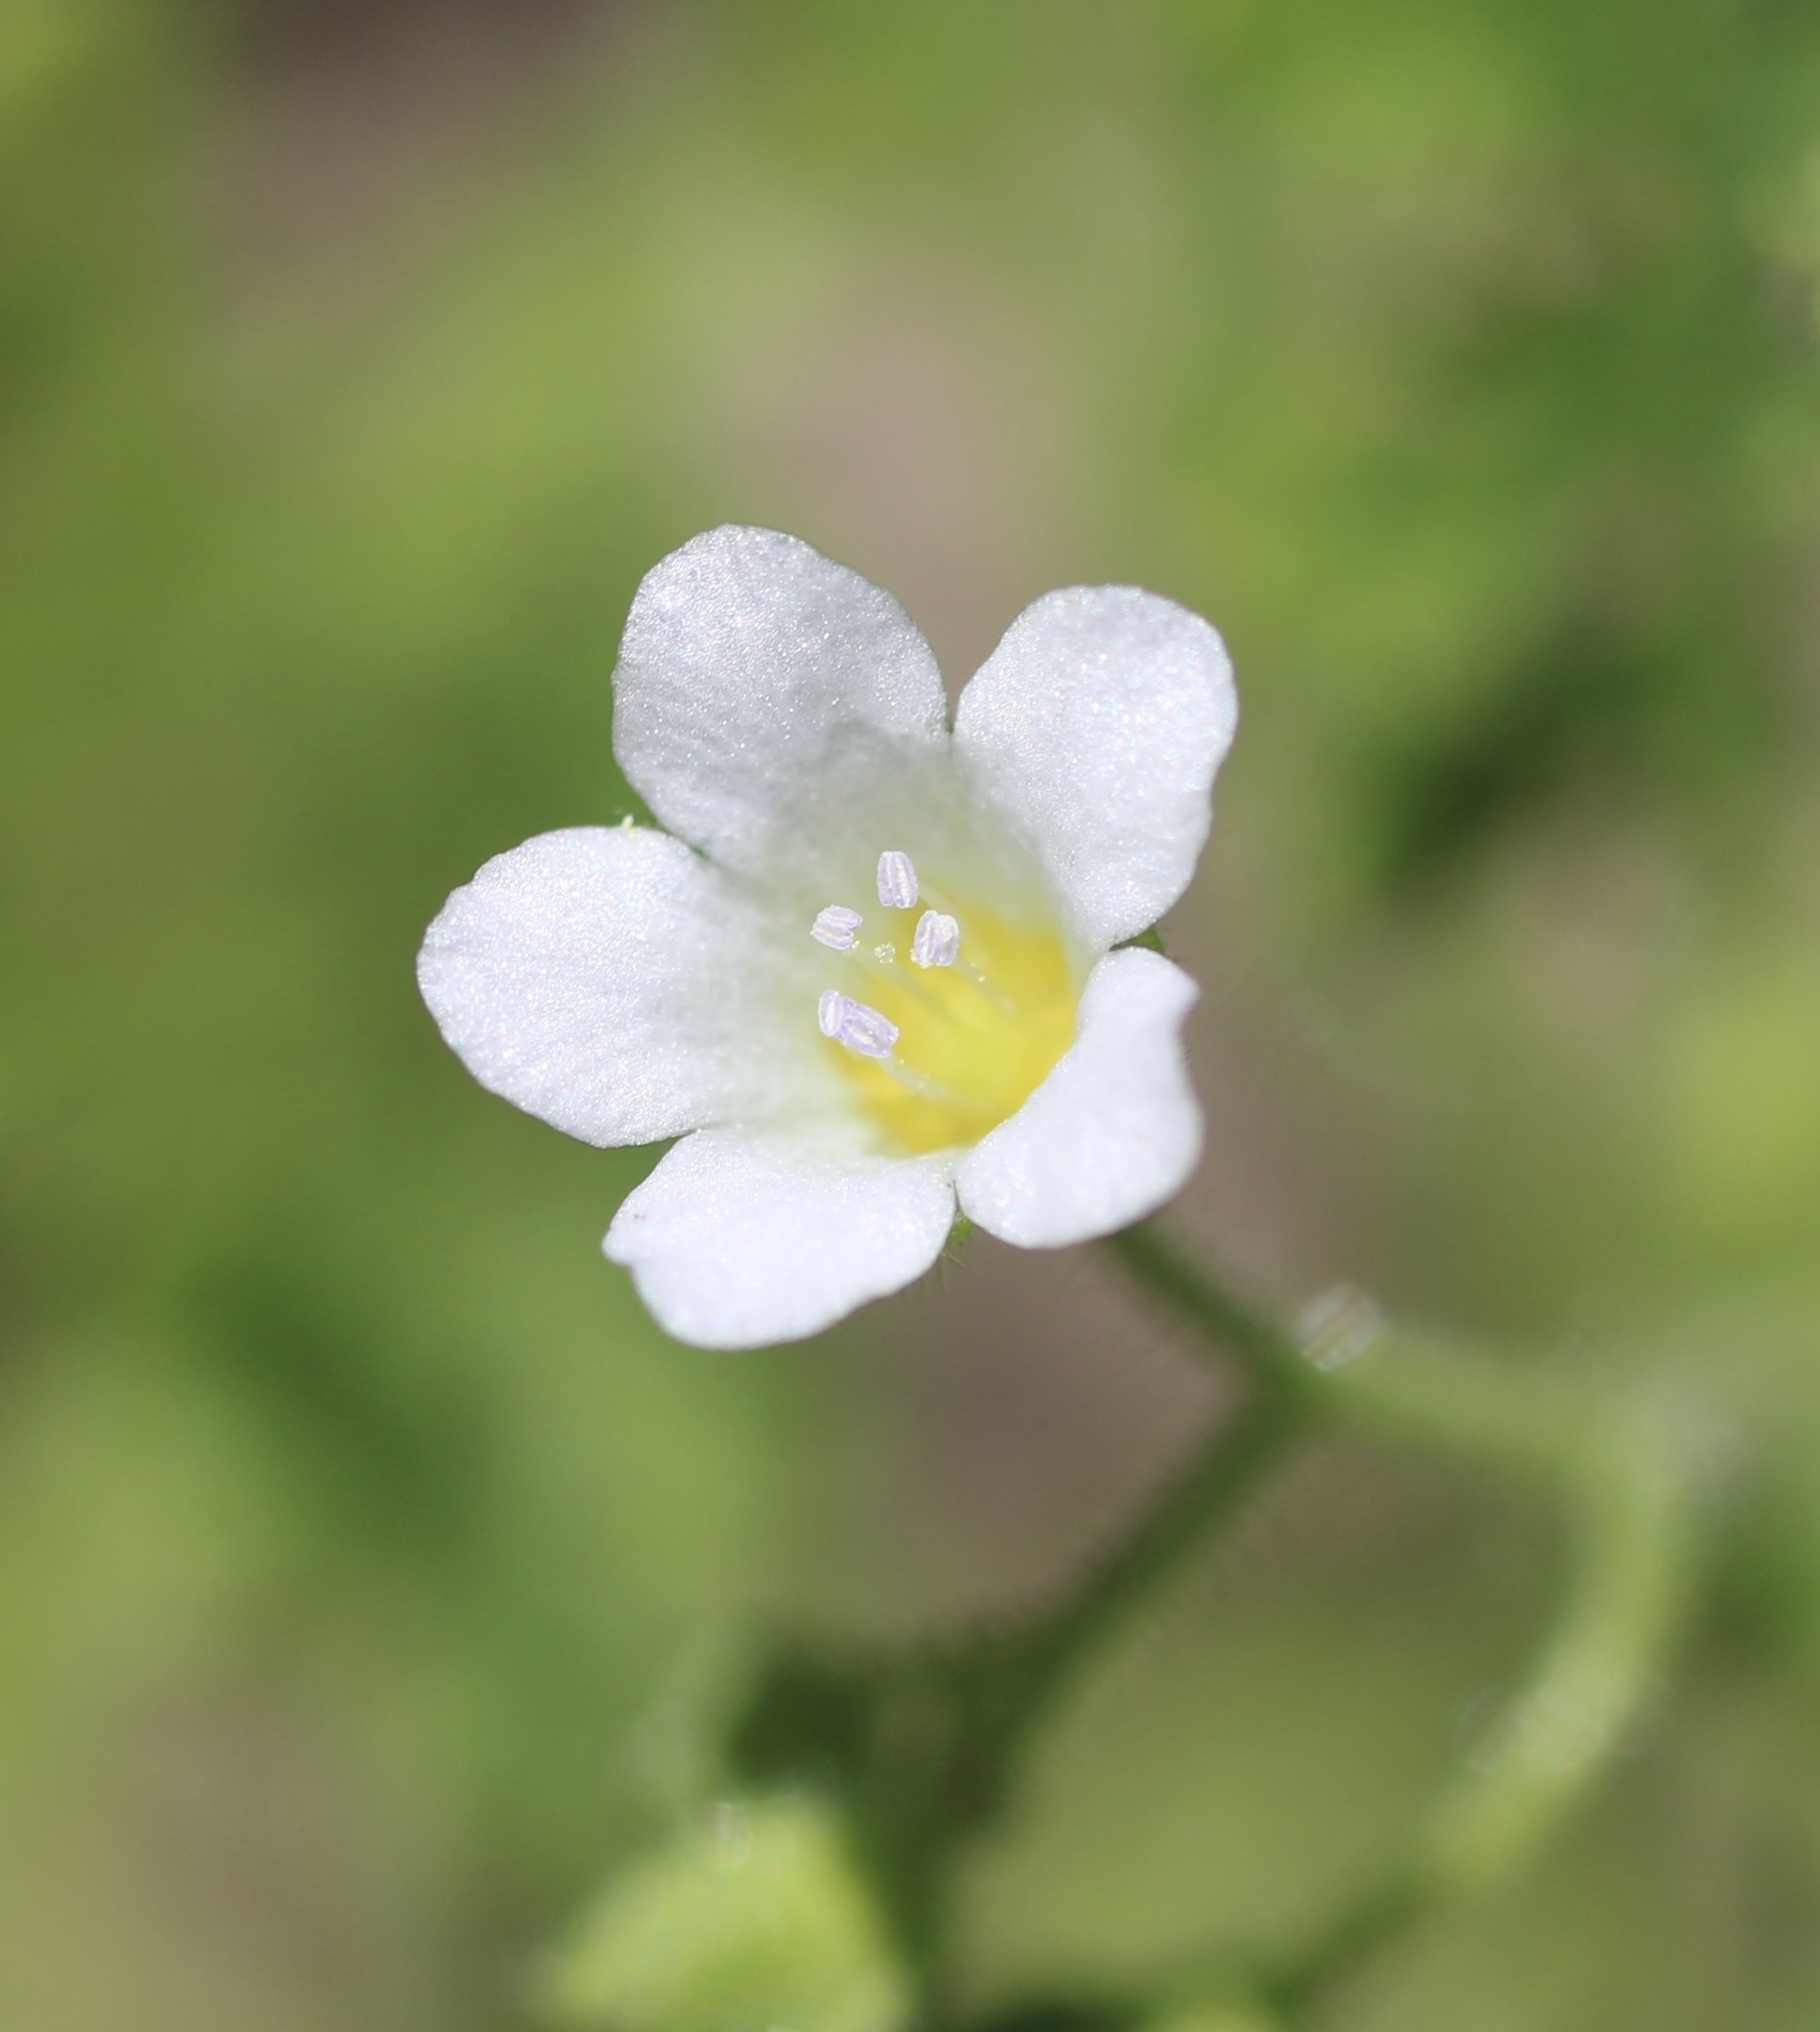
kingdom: Plantae
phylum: Tracheophyta
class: Magnoliopsida
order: Boraginales
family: Hydrophyllaceae
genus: Eucrypta
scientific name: Eucrypta chrysanthemifolia
